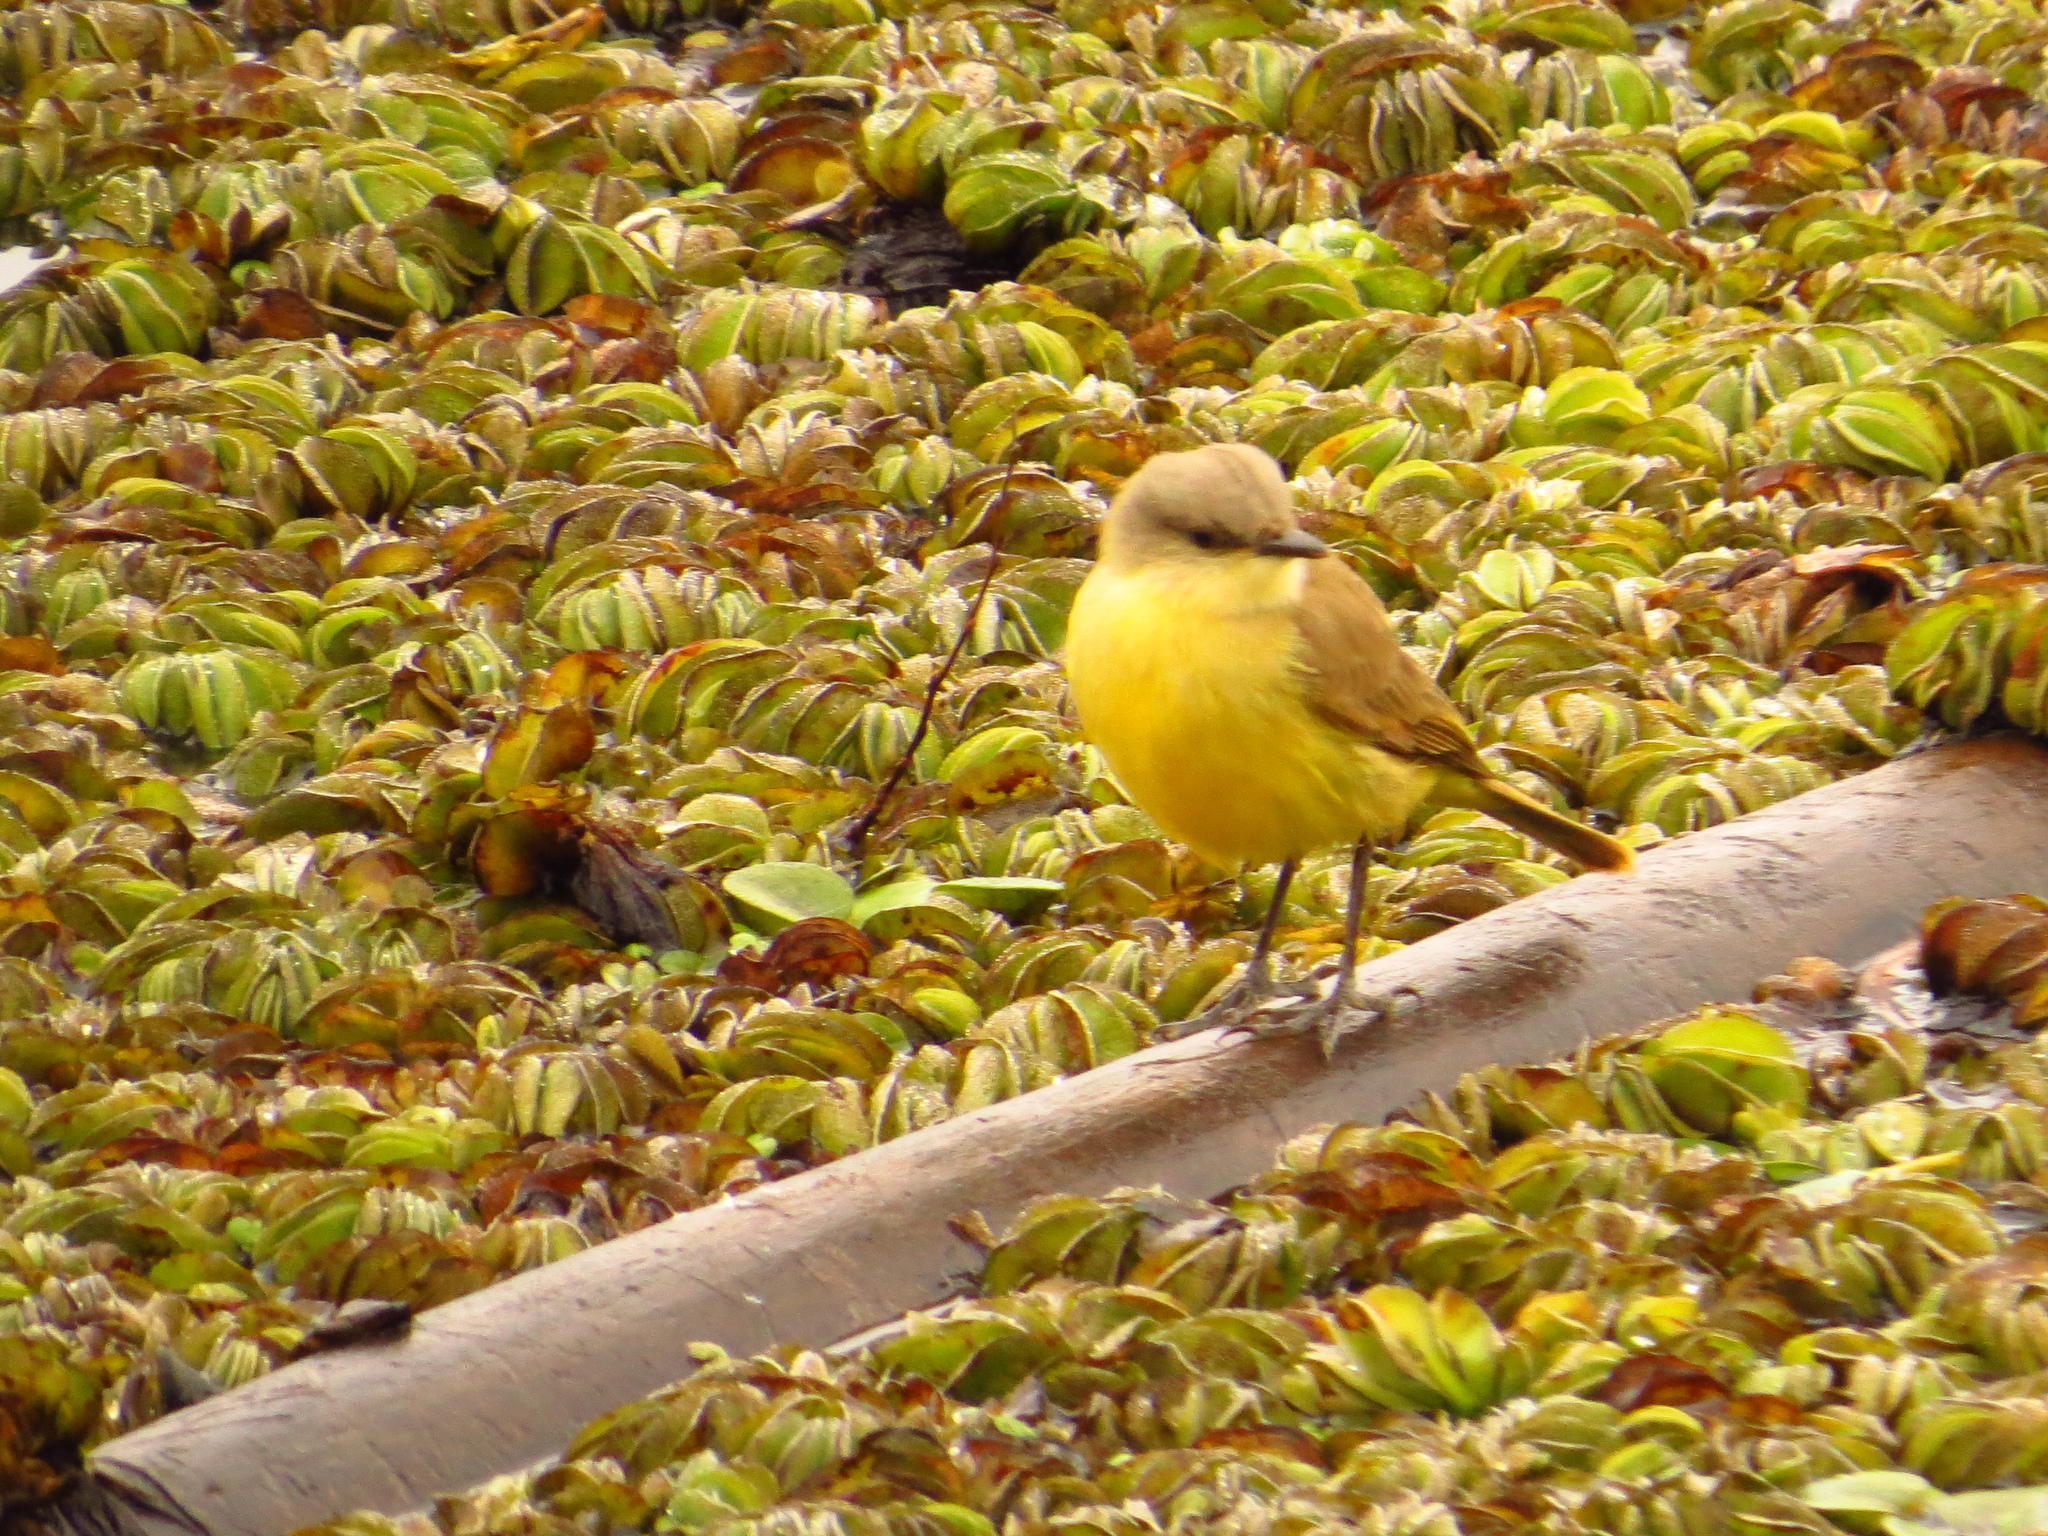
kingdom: Animalia
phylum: Chordata
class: Aves
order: Passeriformes
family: Tyrannidae
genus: Machetornis
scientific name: Machetornis rixosa
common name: Cattle tyrant
